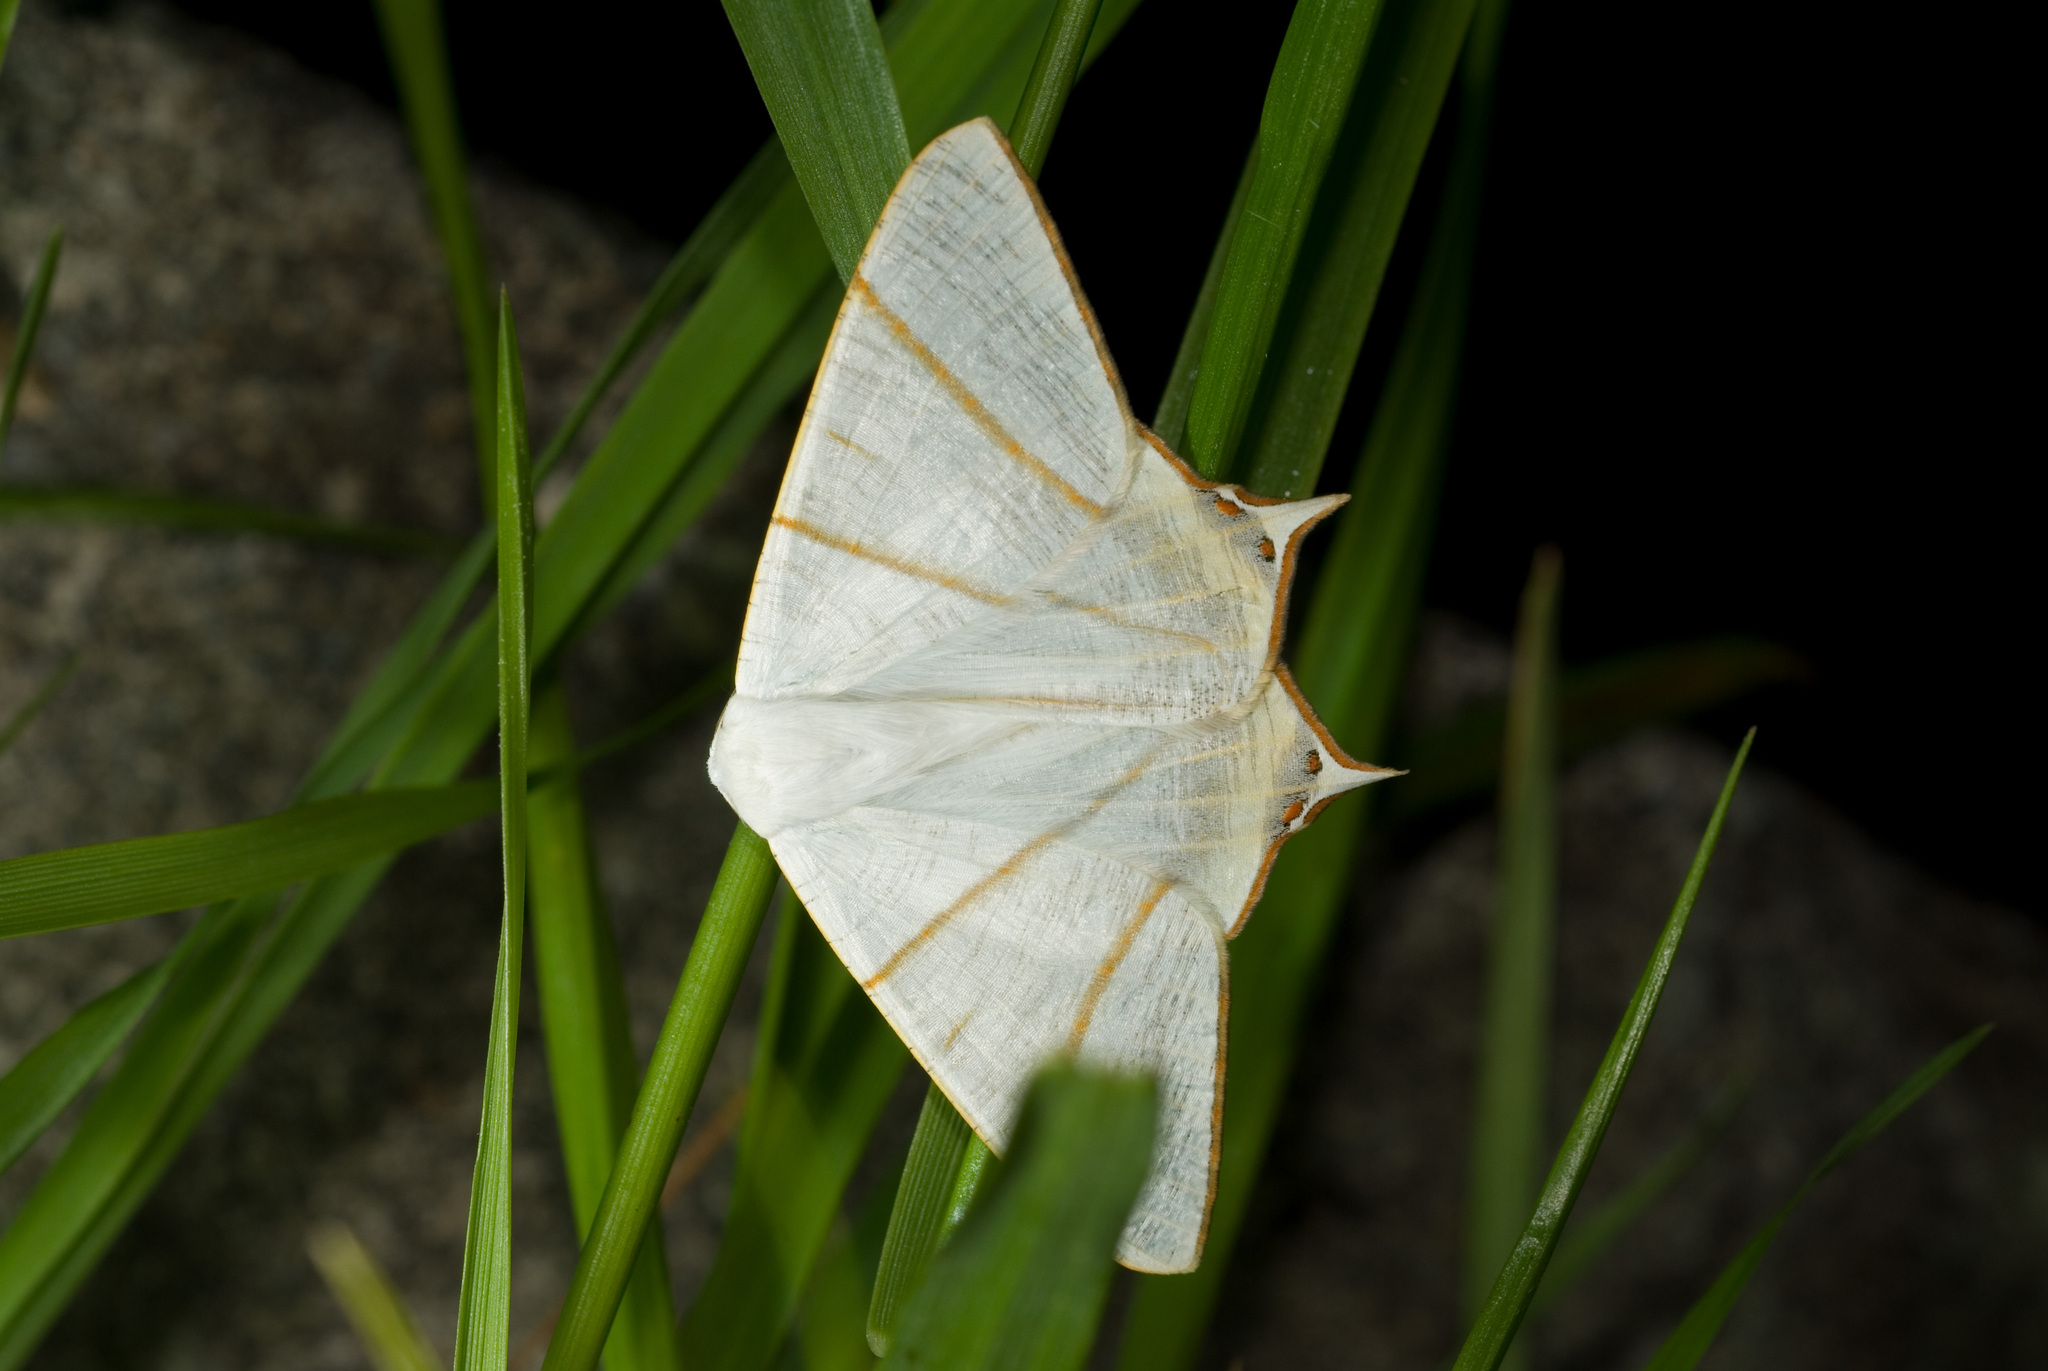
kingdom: Animalia
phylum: Arthropoda
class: Insecta
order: Lepidoptera
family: Geometridae
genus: Ourapteryx
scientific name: Ourapteryx changi
